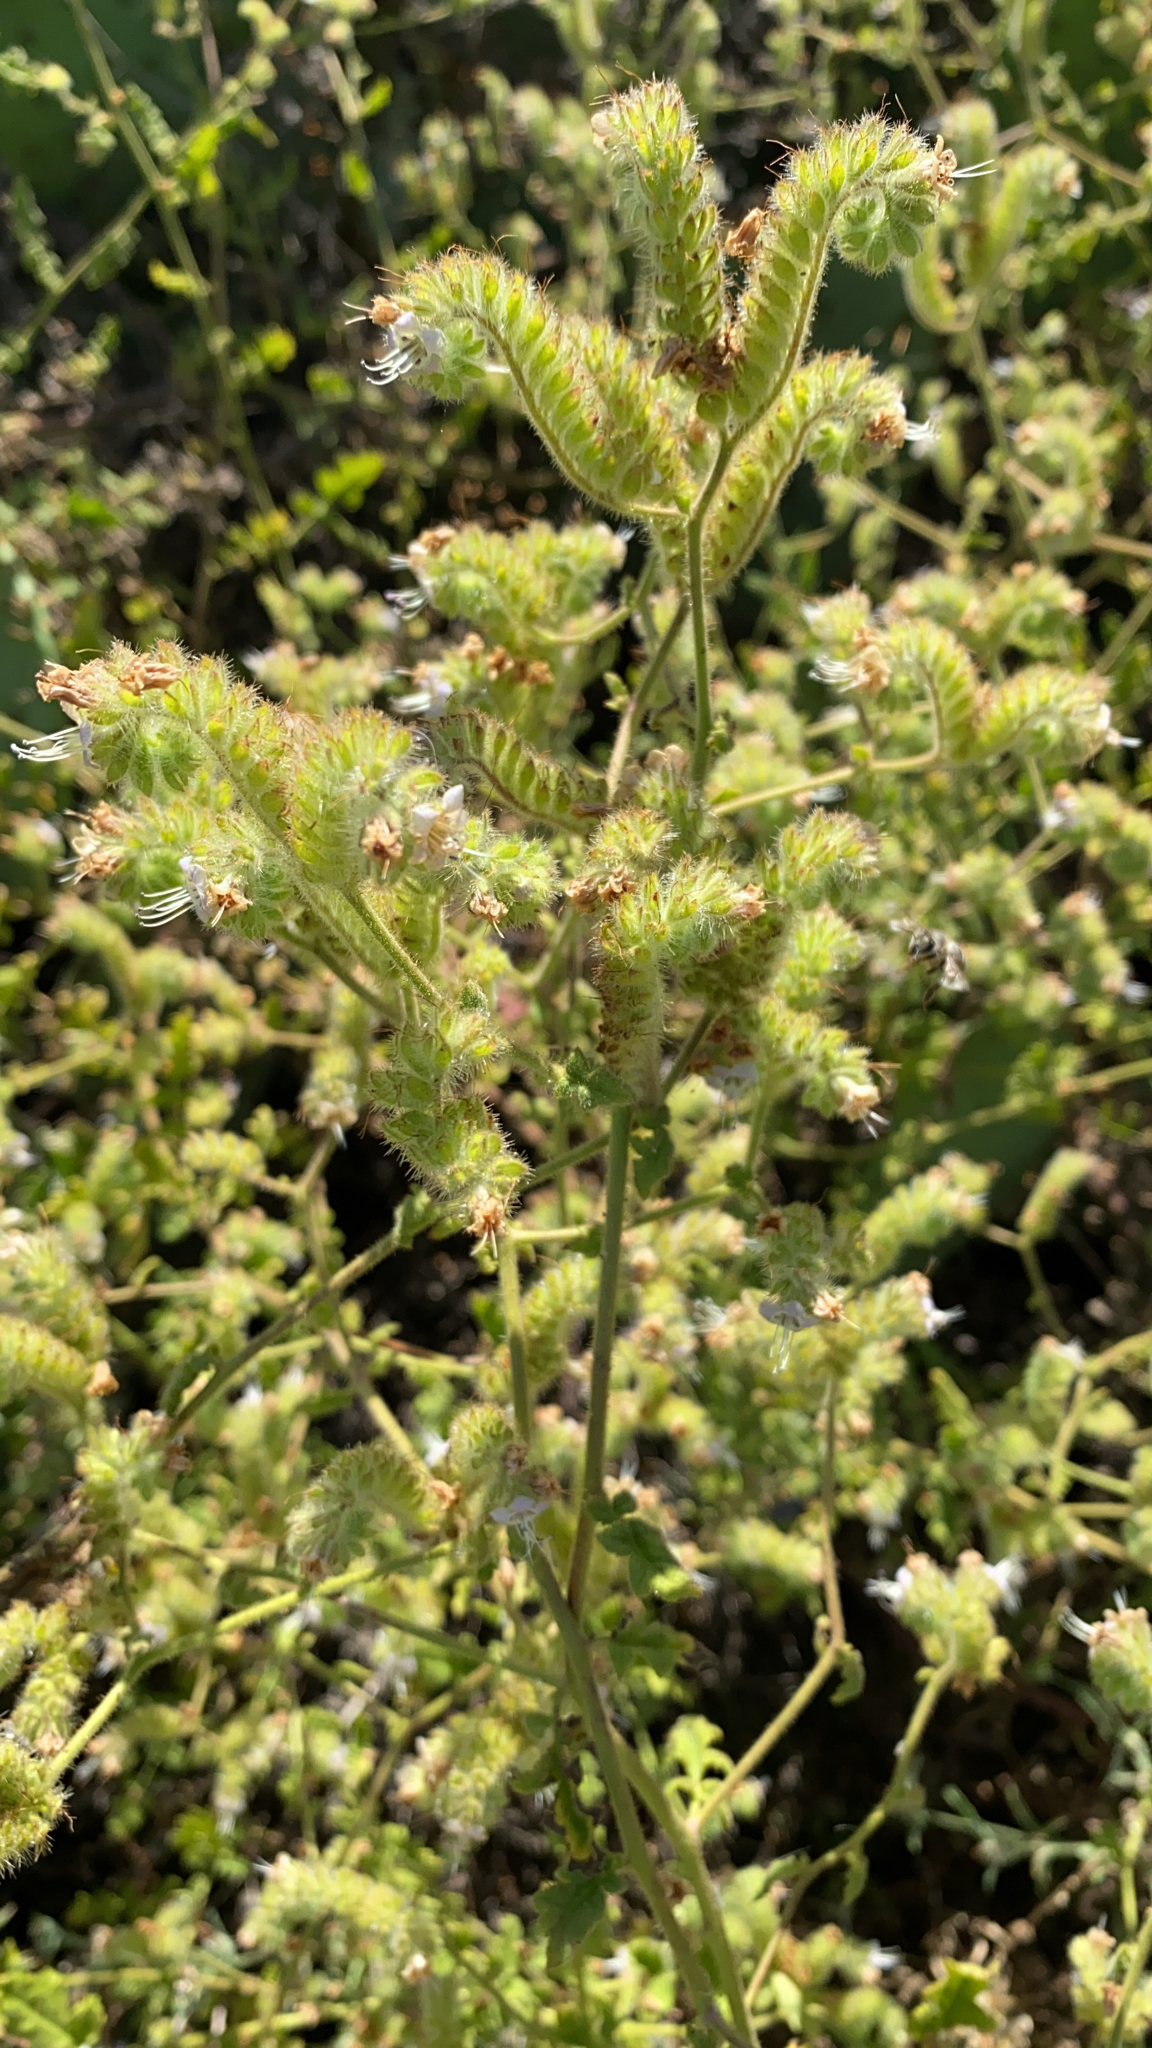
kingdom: Plantae
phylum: Tracheophyta
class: Magnoliopsida
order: Boraginales
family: Hydrophyllaceae
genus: Phacelia
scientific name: Phacelia ramosissima
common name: Branching phacelia
